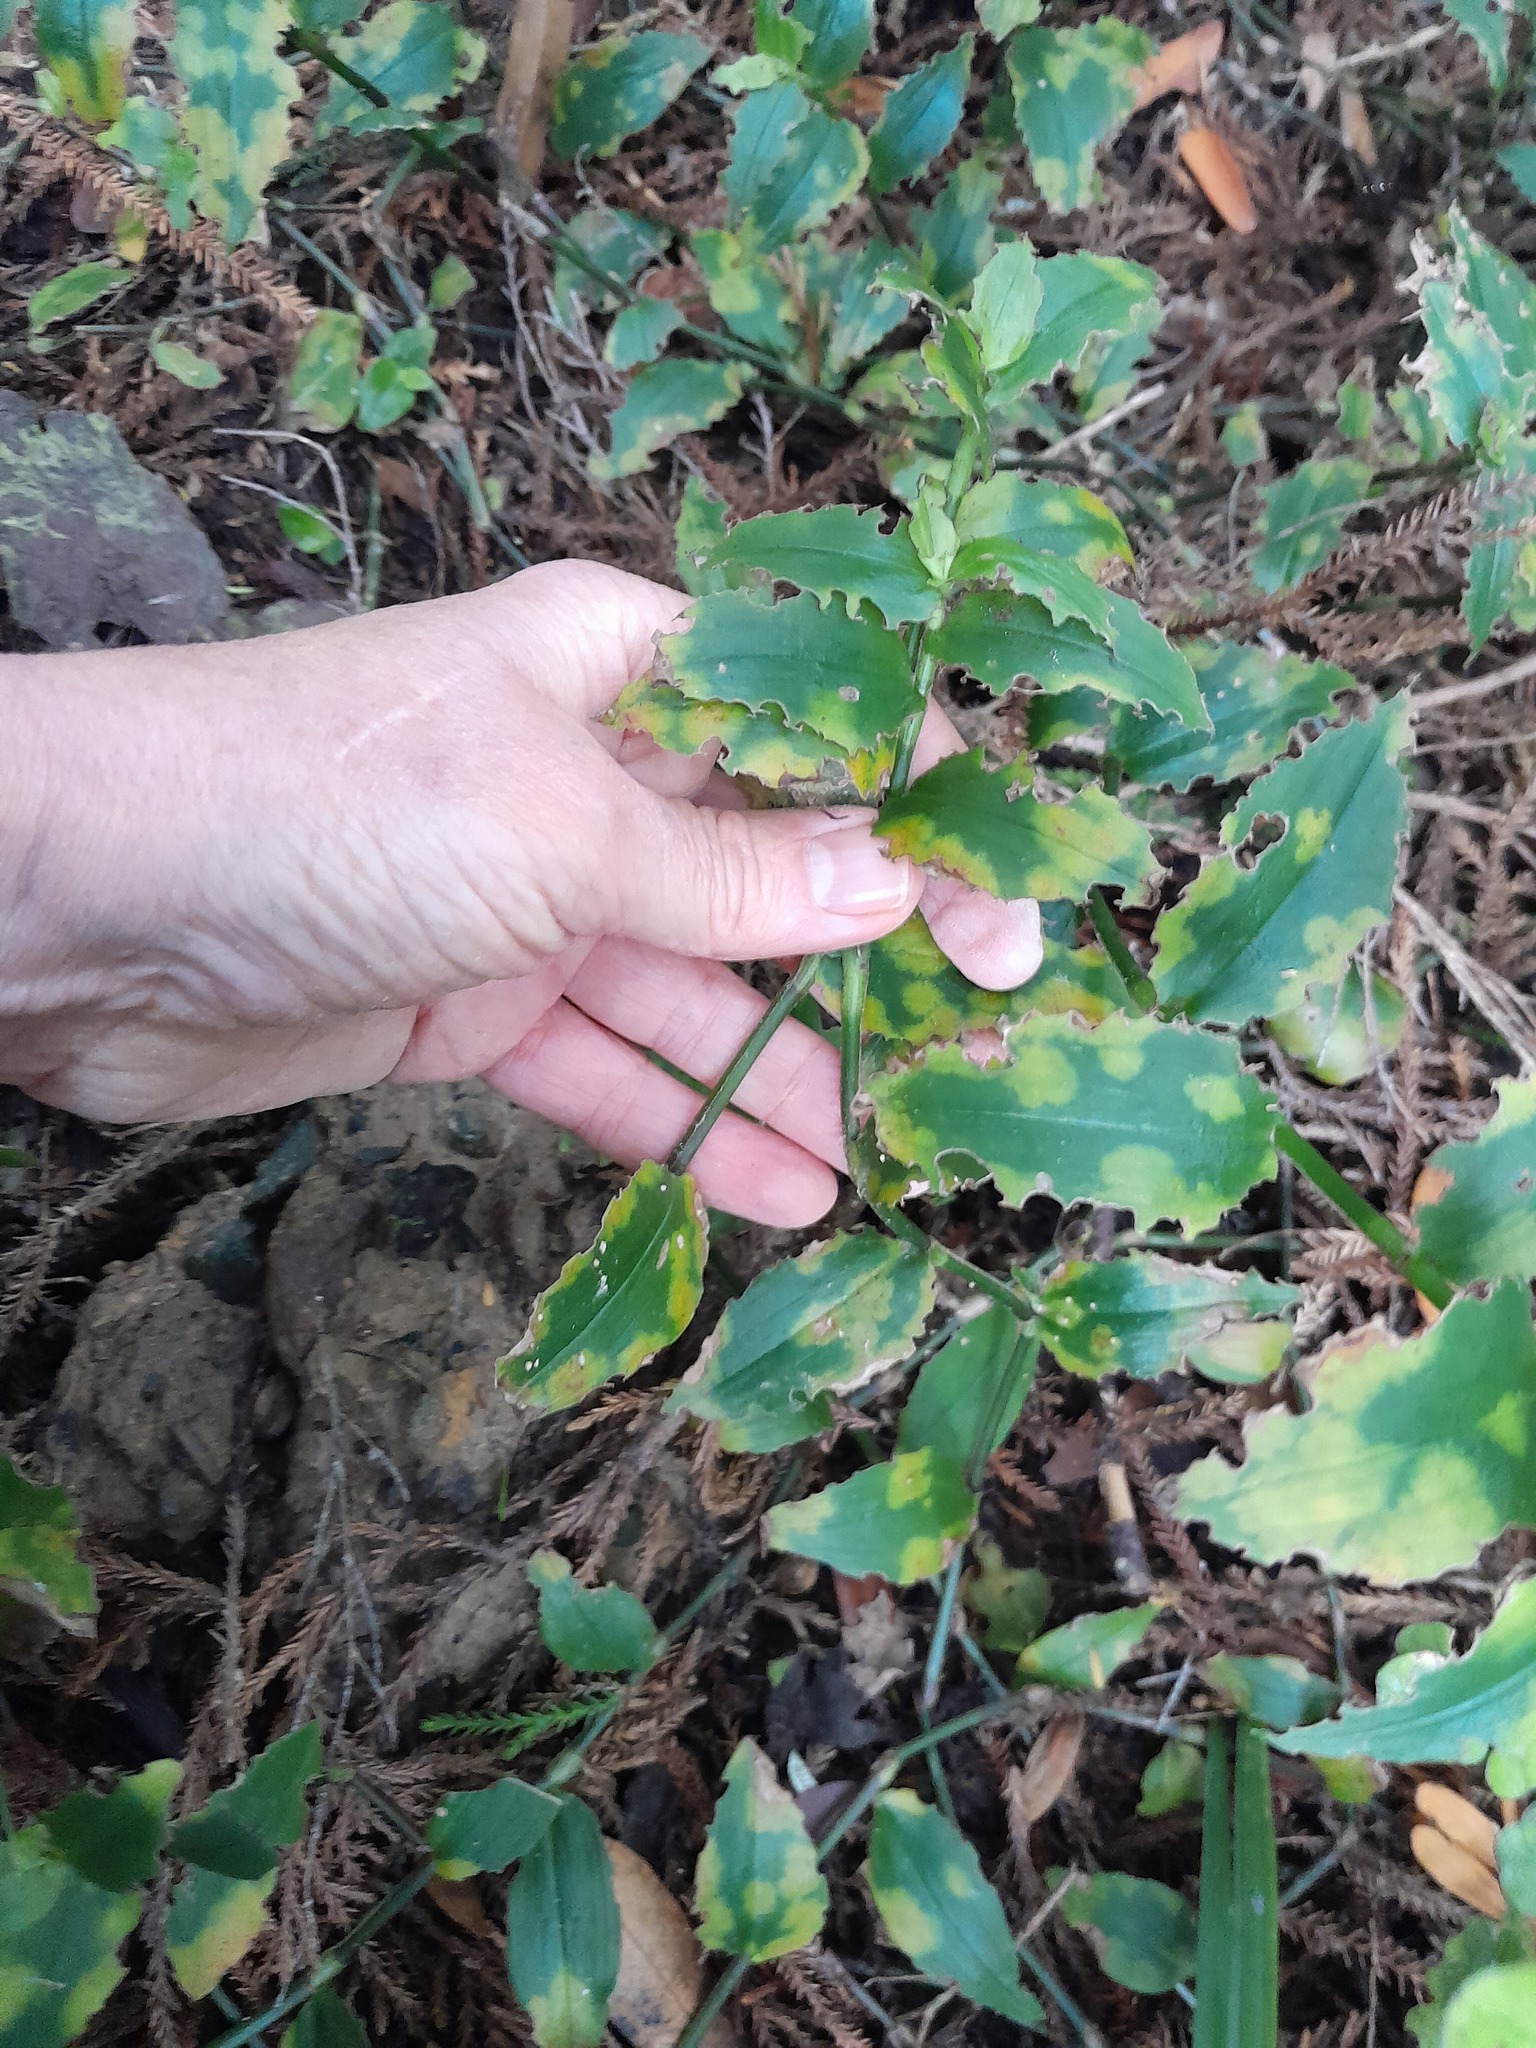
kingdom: Fungi
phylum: Basidiomycota
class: Exobasidiomycetes
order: Exobasidiales
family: Brachybasidiaceae
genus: Kordyana
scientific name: Kordyana brasiliensis
